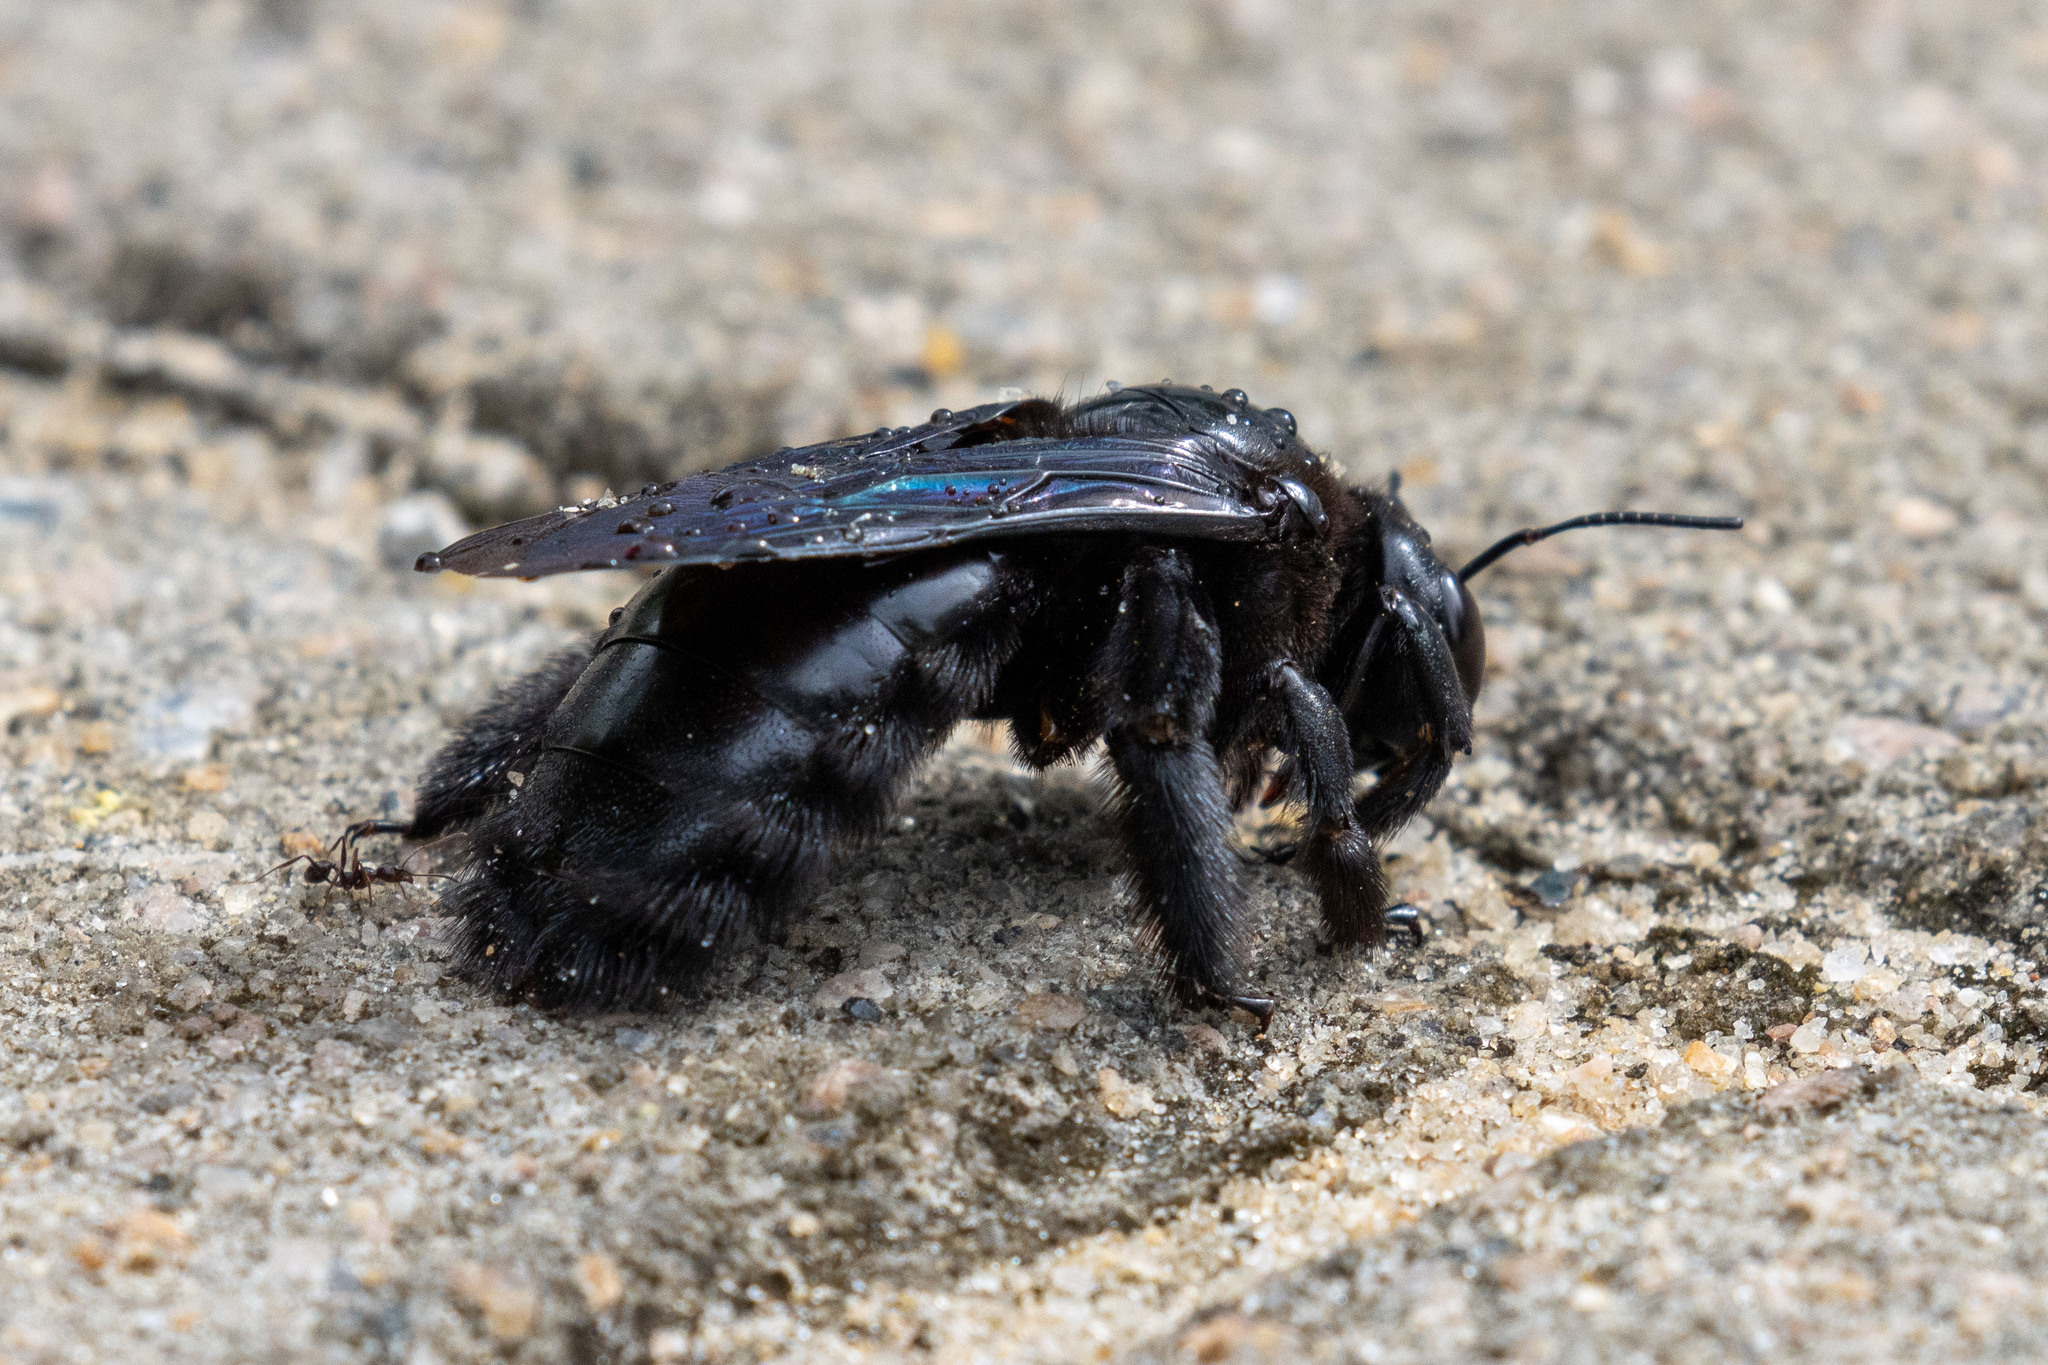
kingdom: Animalia
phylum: Arthropoda
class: Insecta
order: Hymenoptera
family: Apidae
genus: Xylocopa
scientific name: Xylocopa frontalis
